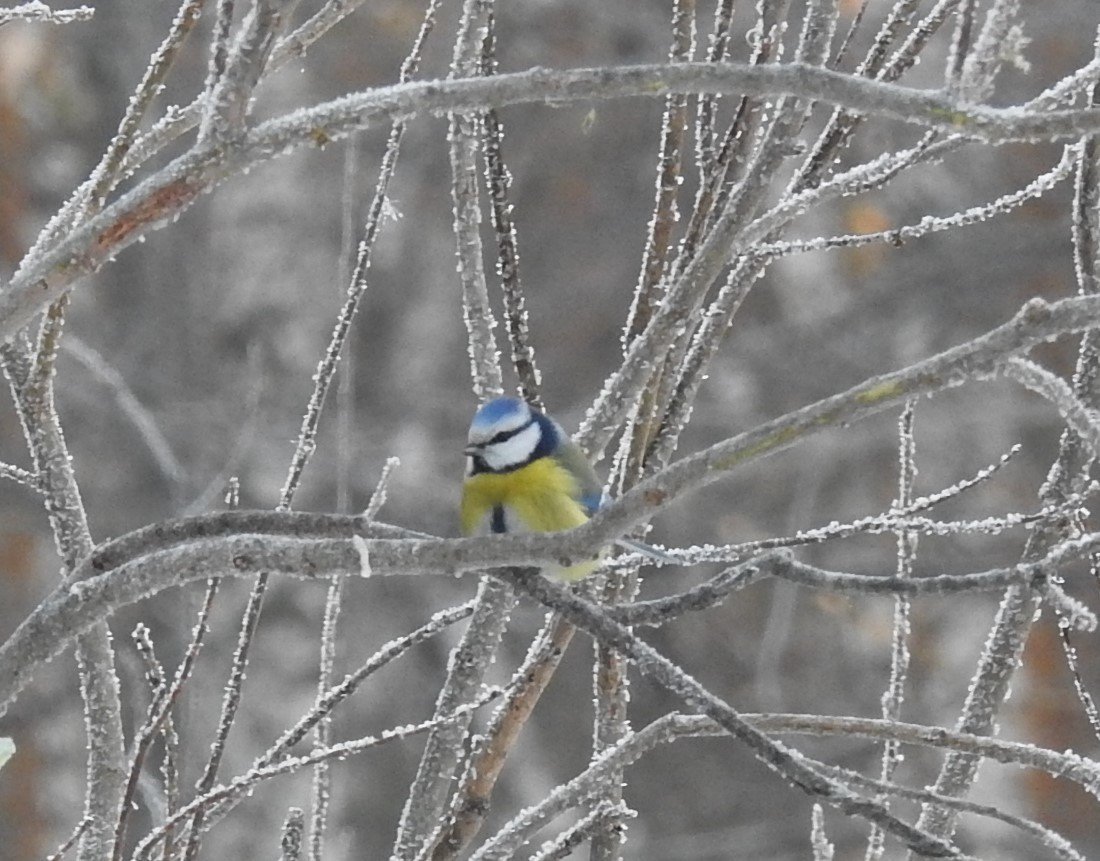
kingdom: Animalia
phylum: Chordata
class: Aves
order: Passeriformes
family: Paridae
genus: Cyanistes
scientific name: Cyanistes caeruleus
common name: Eurasian blue tit
